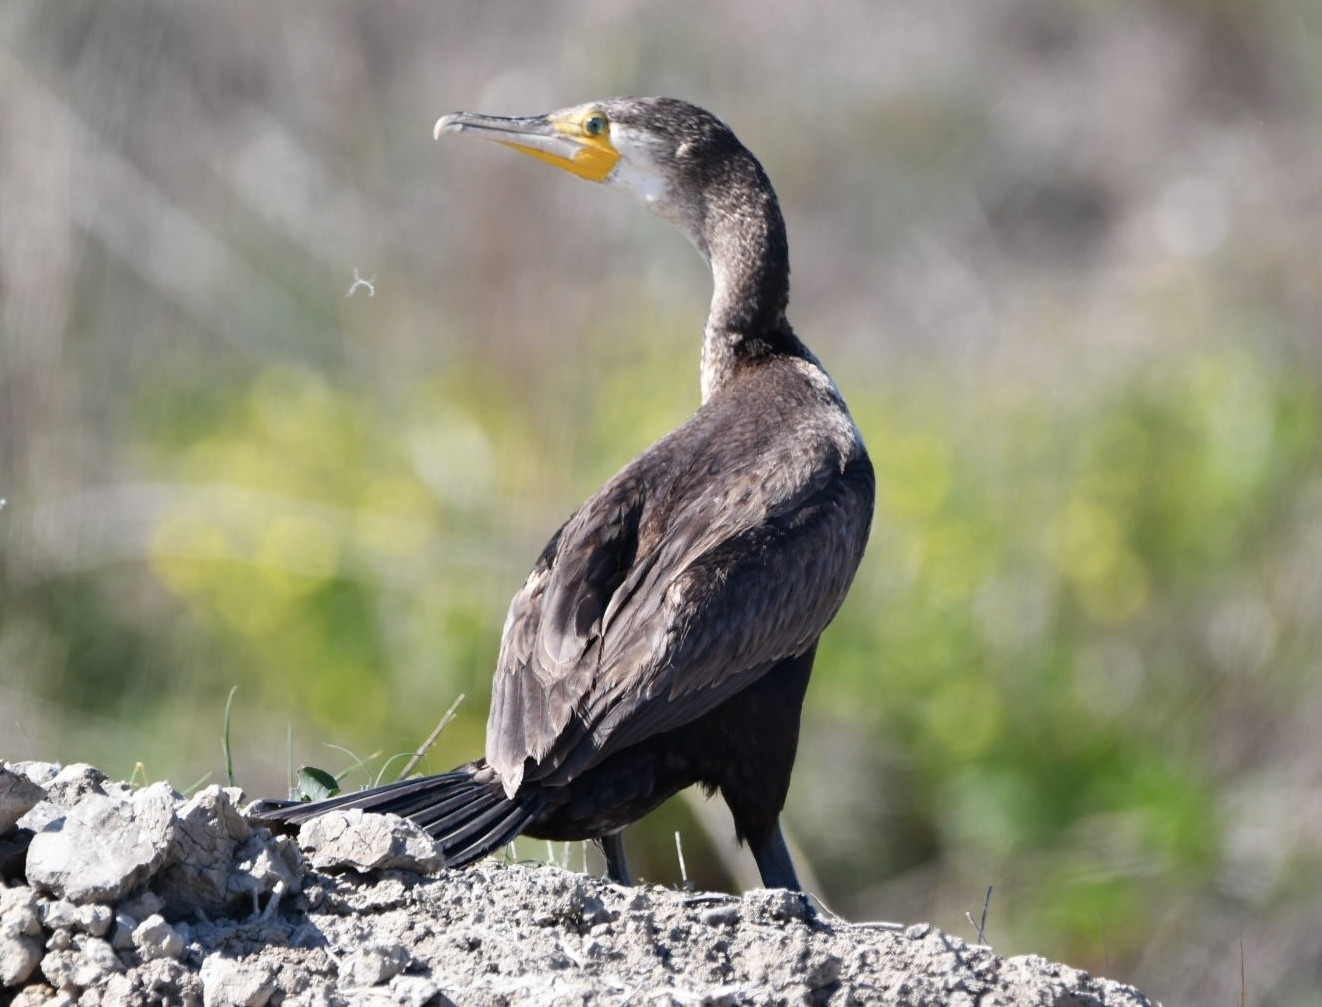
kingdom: Animalia
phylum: Chordata
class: Aves
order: Suliformes
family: Phalacrocoracidae
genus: Phalacrocorax
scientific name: Phalacrocorax carbo
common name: Great cormorant
